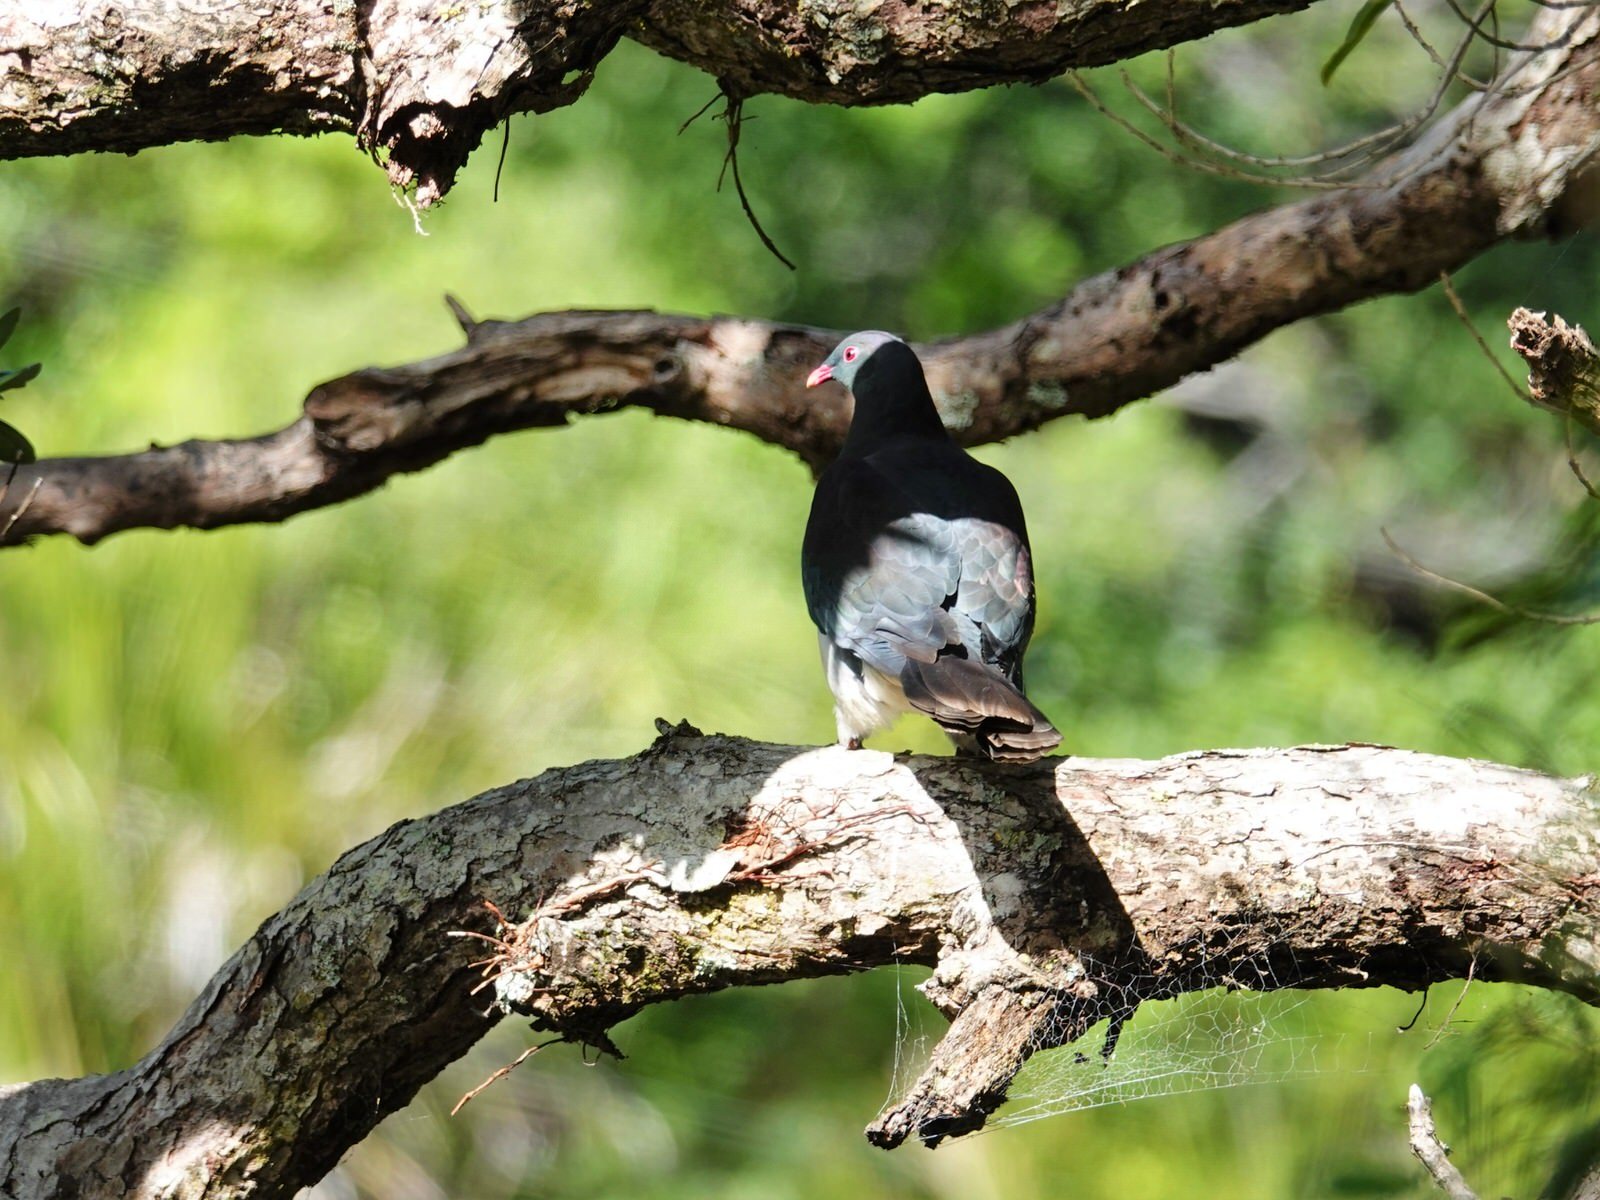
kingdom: Animalia
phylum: Chordata
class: Aves
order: Columbiformes
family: Columbidae
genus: Hemiphaga
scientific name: Hemiphaga novaeseelandiae
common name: New zealand pigeon
